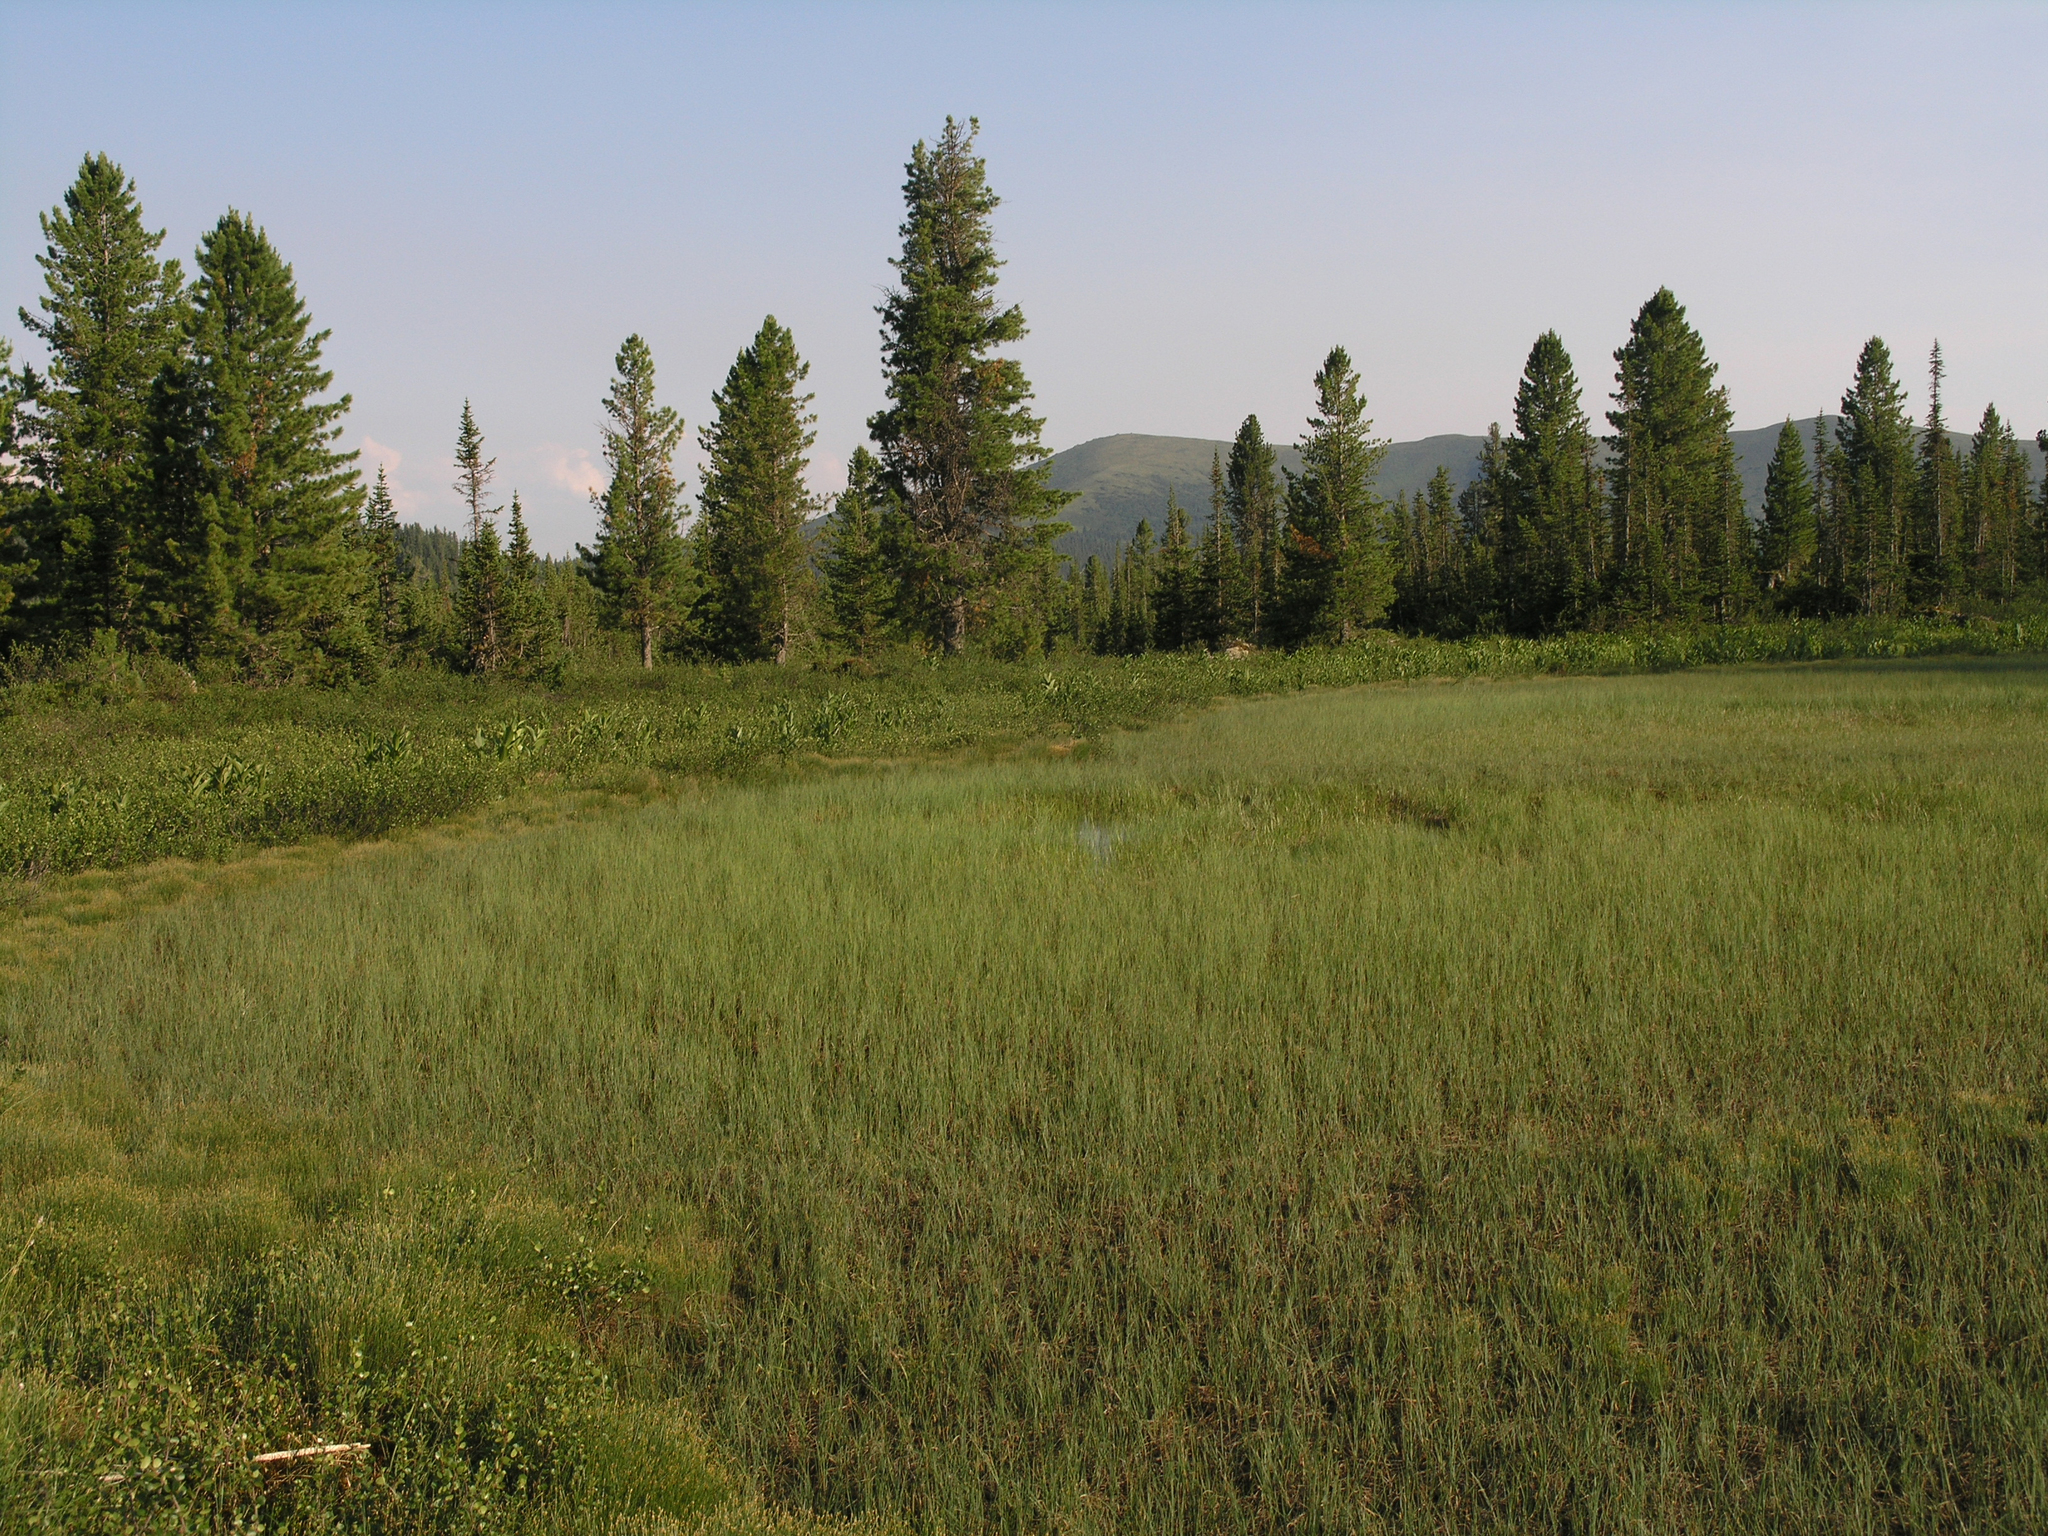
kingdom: Plantae
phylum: Tracheophyta
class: Pinopsida
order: Pinales
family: Pinaceae
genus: Pinus
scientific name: Pinus sibirica
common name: Siberian pine
